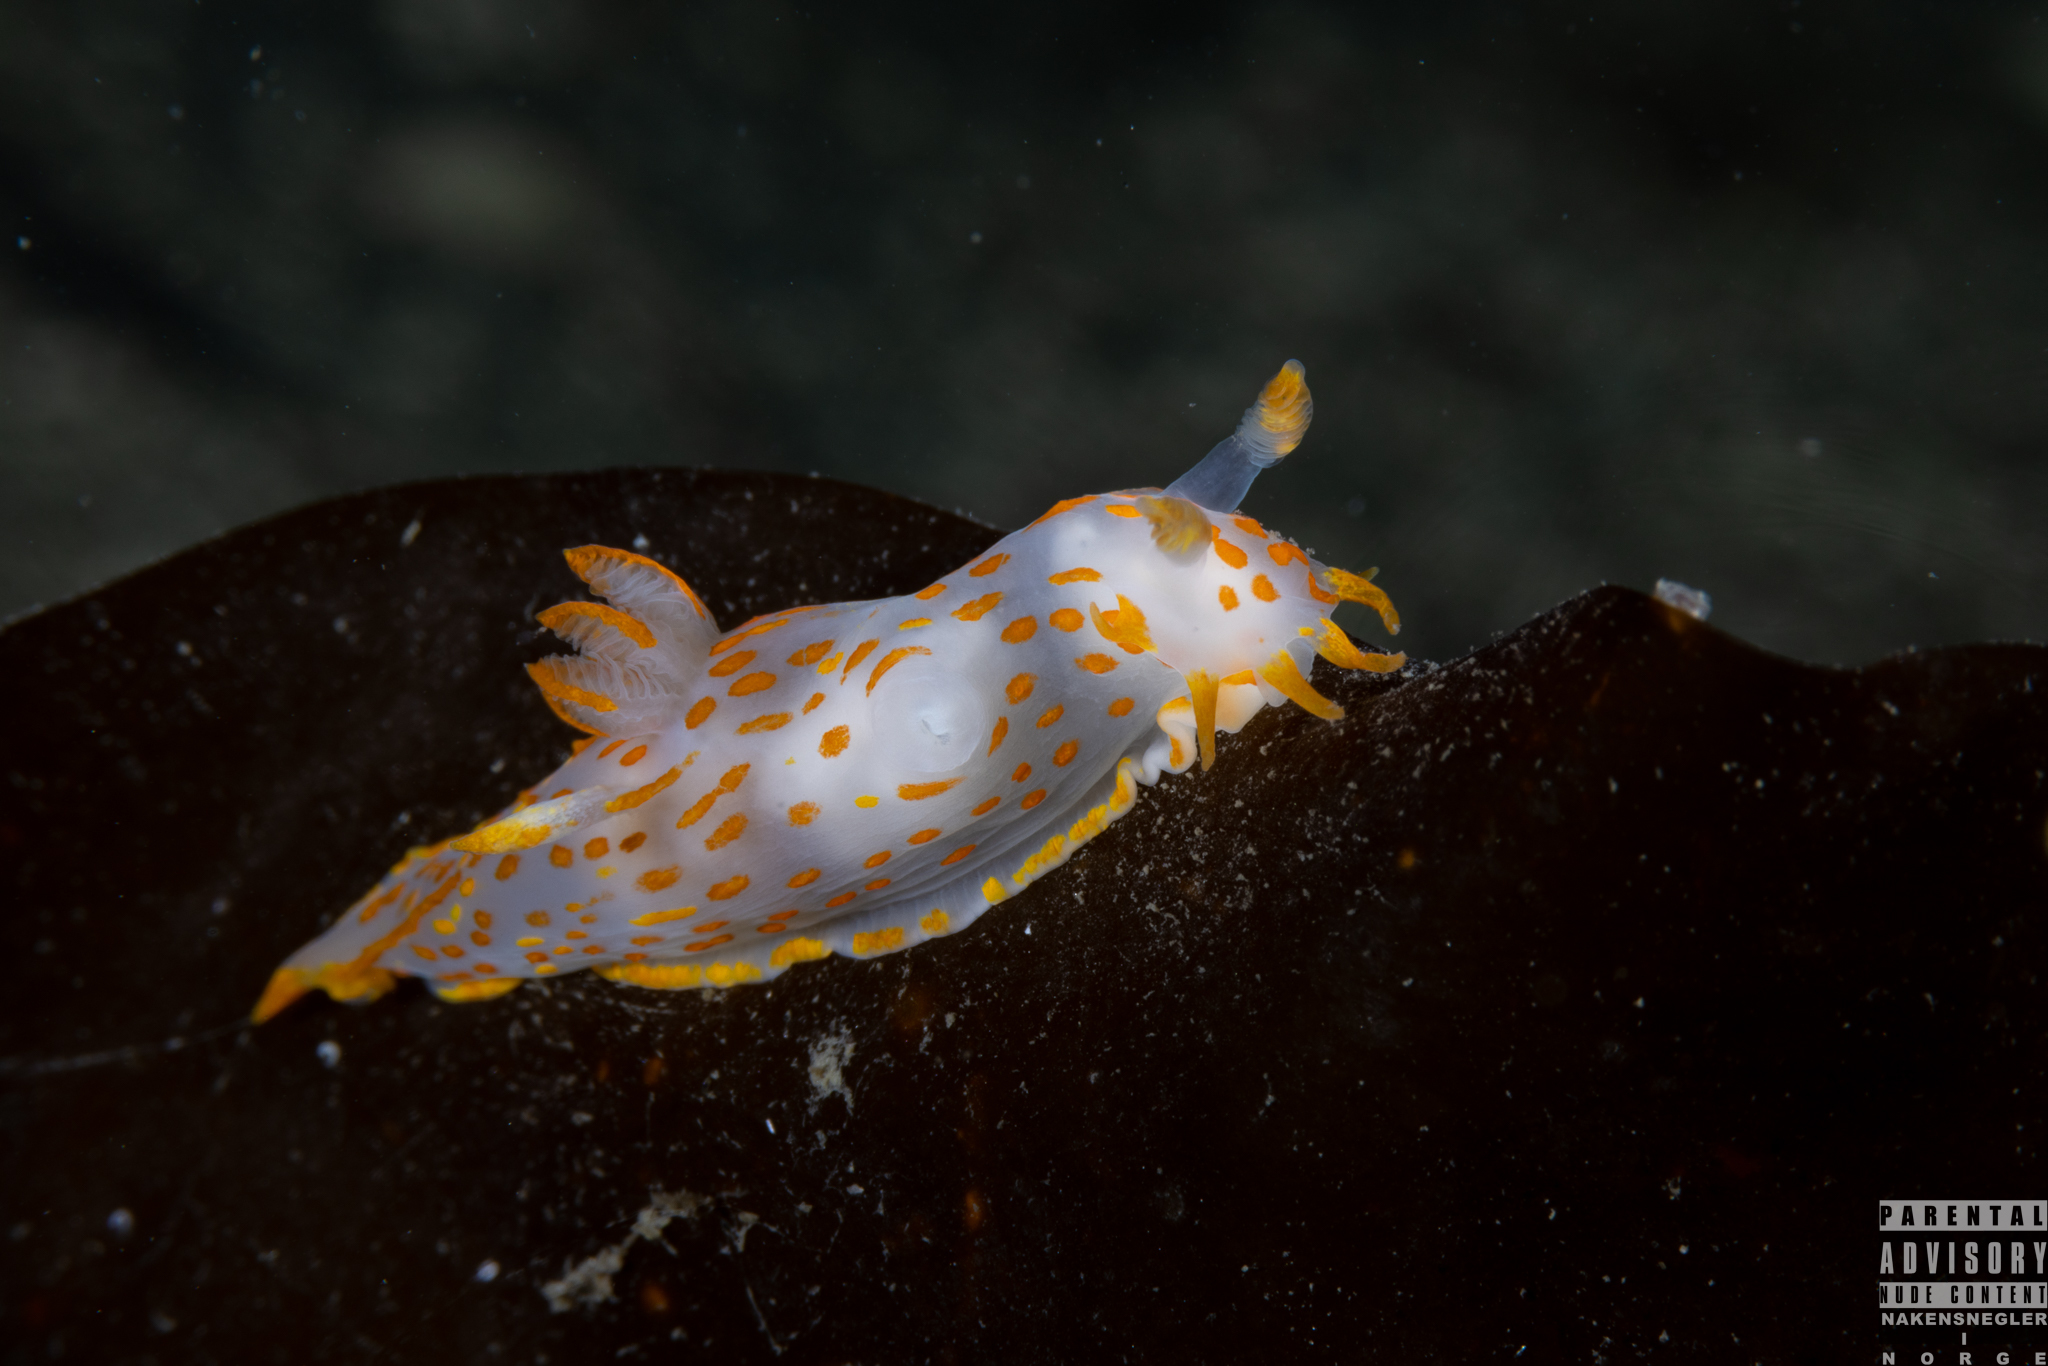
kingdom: Animalia
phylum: Mollusca
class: Gastropoda
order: Nudibranchia
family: Polyceridae
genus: Polycera
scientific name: Polycera quadrilineata
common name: Four-striped polycera
